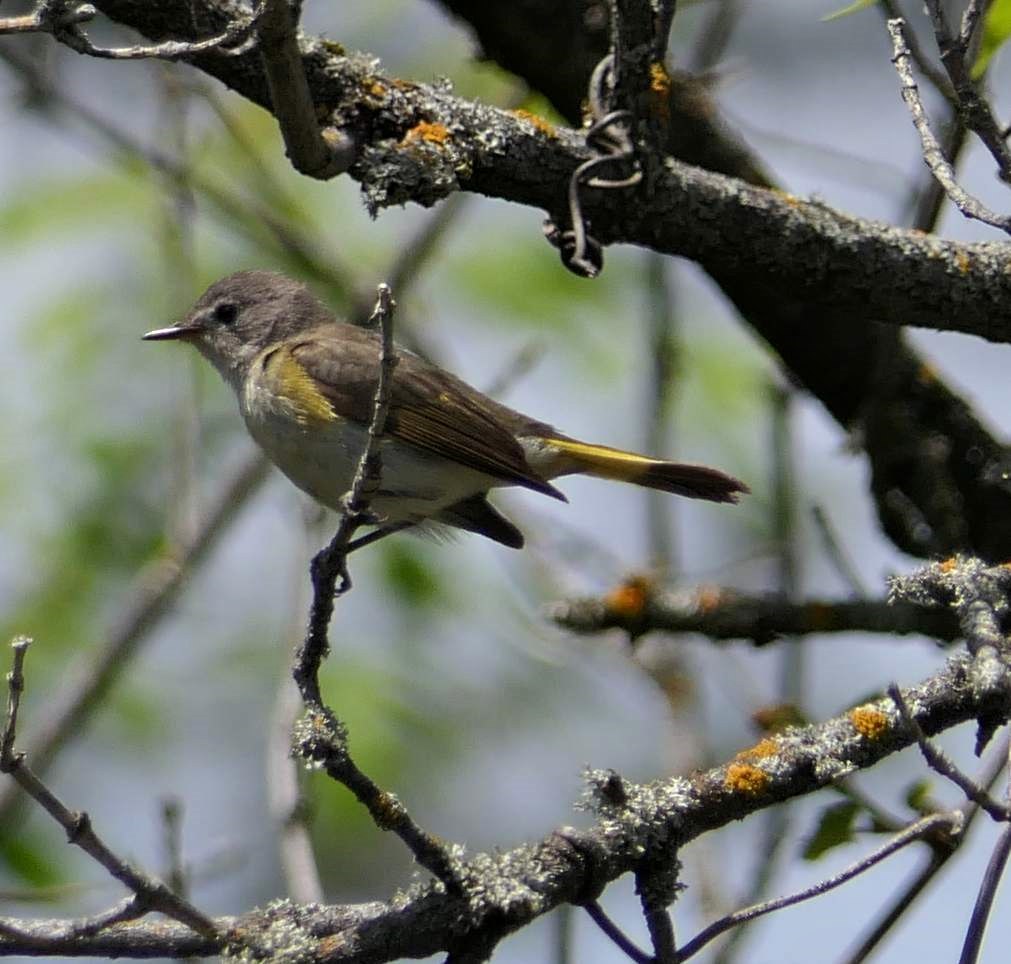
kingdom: Animalia
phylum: Chordata
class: Aves
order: Passeriformes
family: Parulidae
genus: Setophaga
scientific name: Setophaga ruticilla
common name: American redstart
